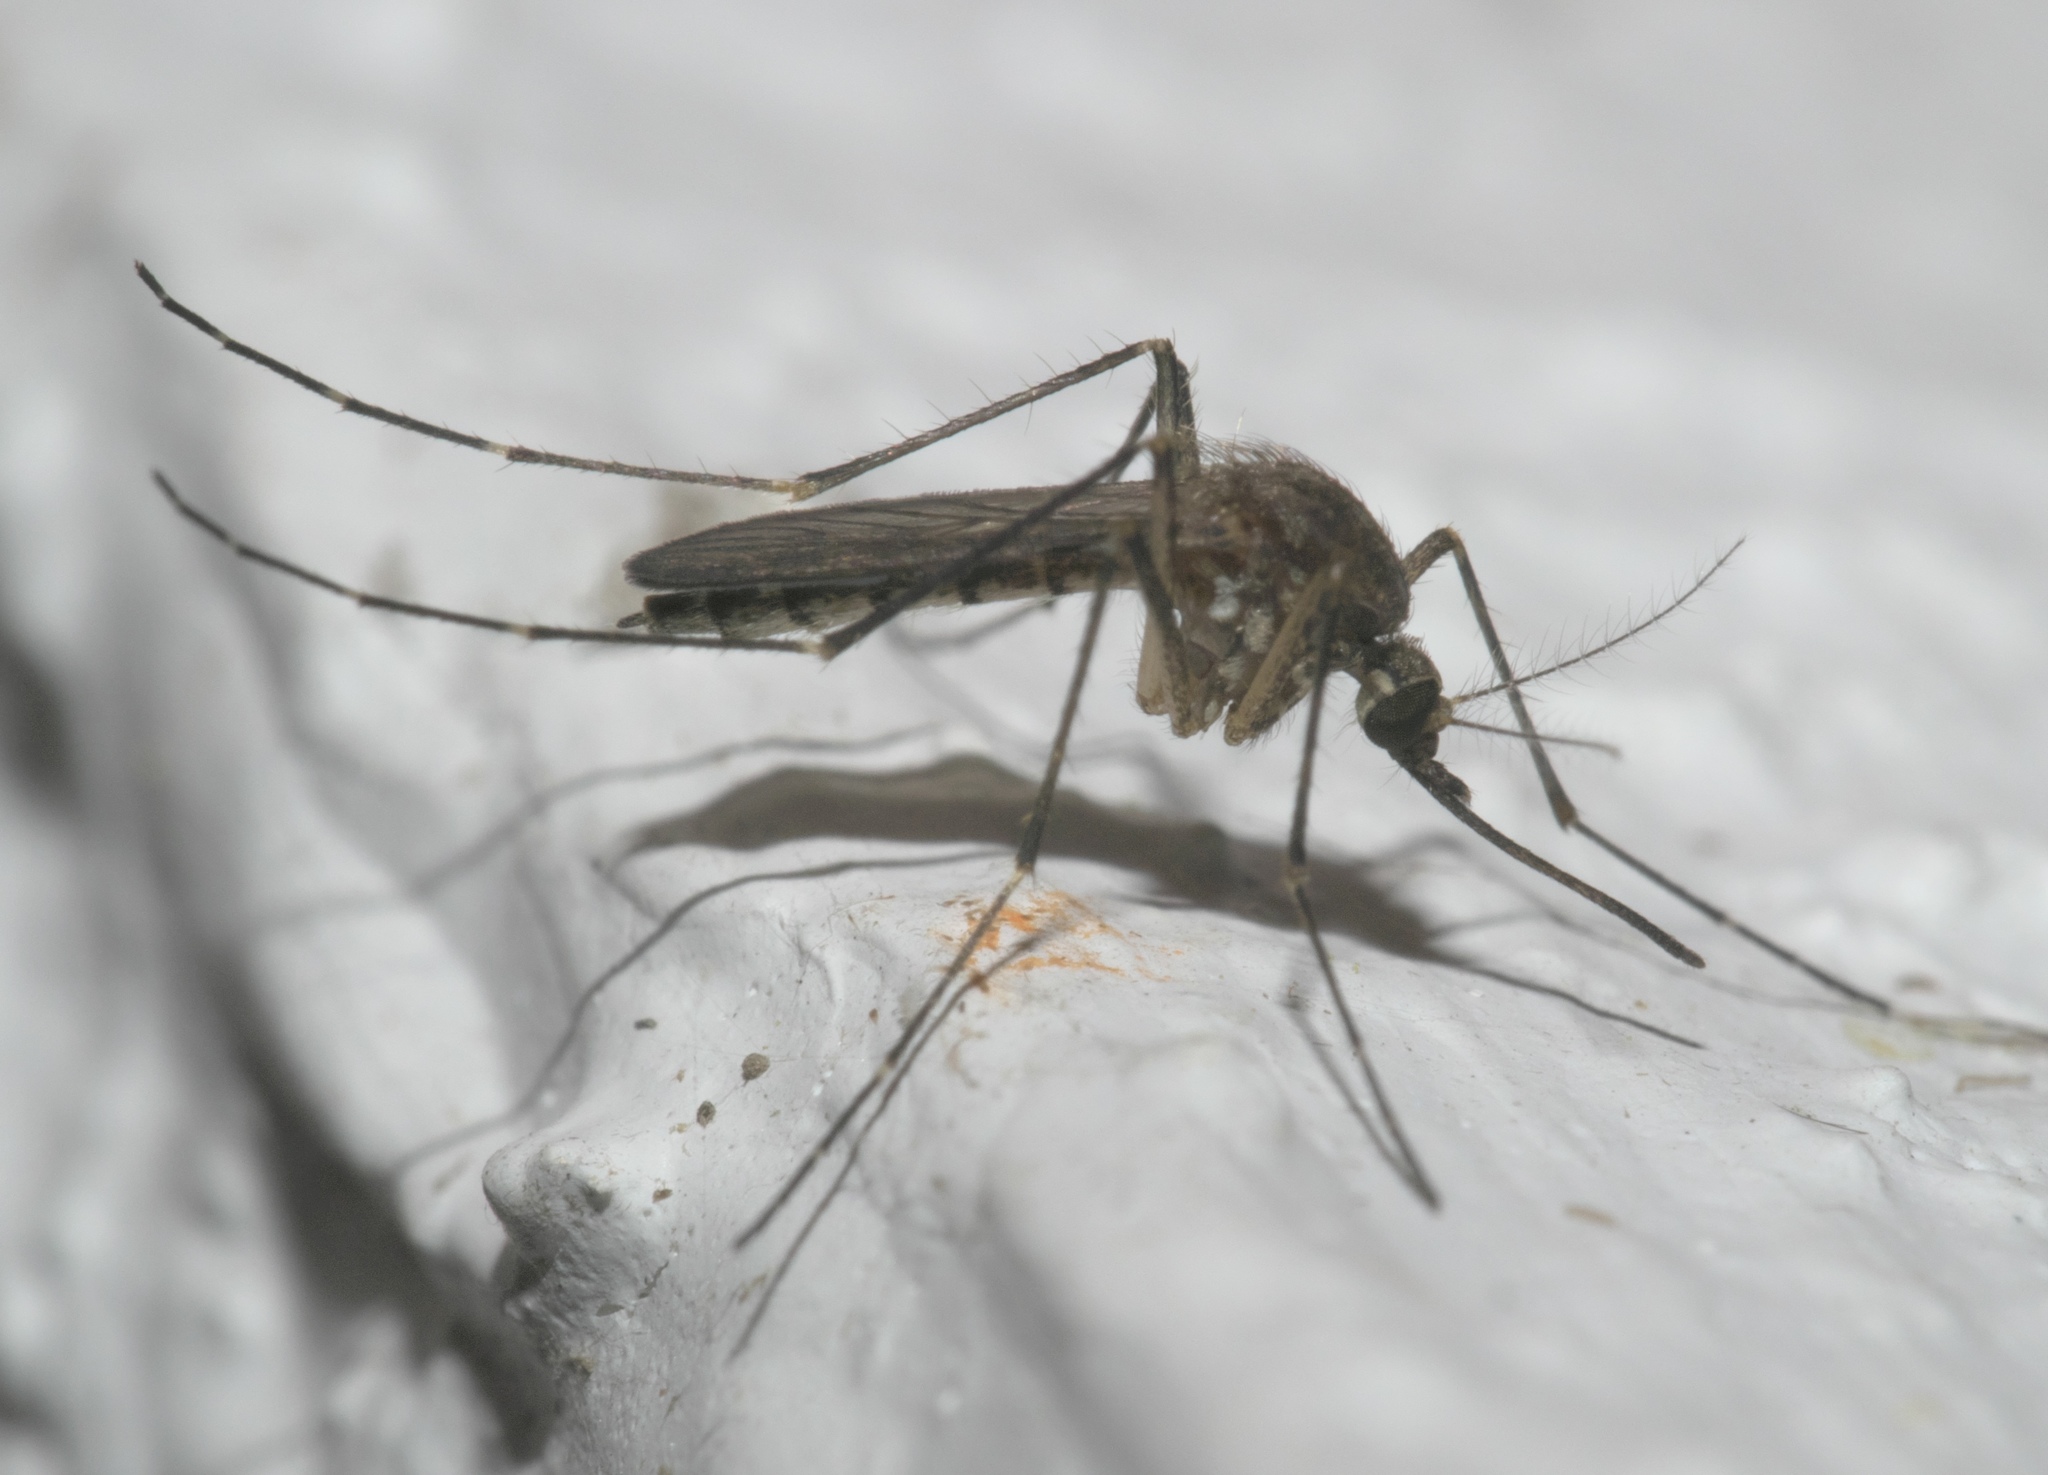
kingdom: Animalia
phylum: Arthropoda
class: Insecta
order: Diptera
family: Culicidae
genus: Aedes
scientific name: Aedes vexans
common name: Inland floodwater mosquito
